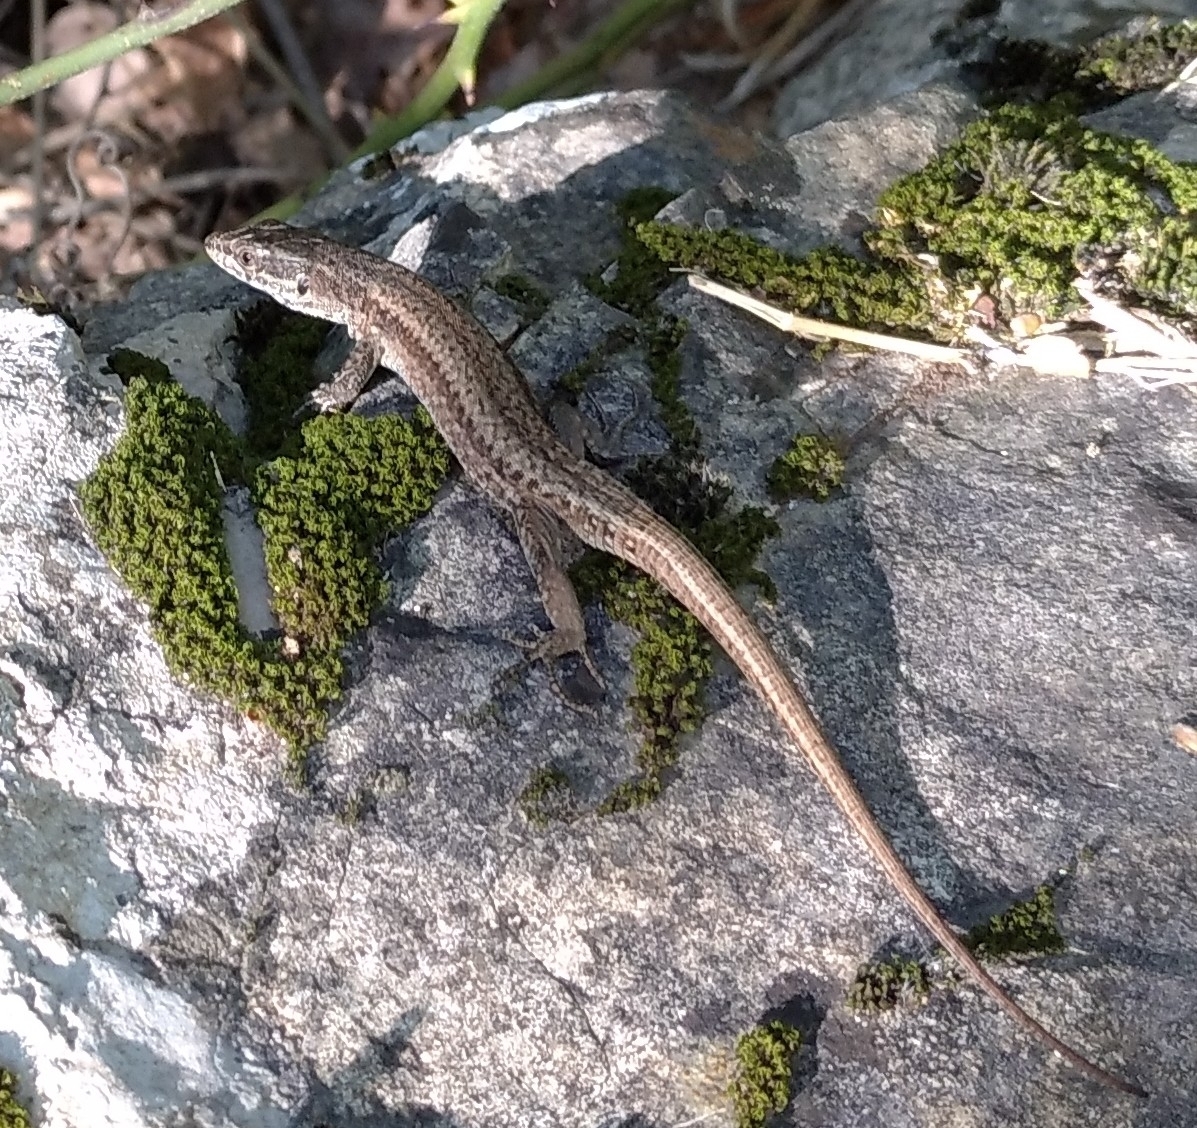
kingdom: Animalia
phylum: Chordata
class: Squamata
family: Lacertidae
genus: Podarcis
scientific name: Podarcis muralis
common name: Common wall lizard
